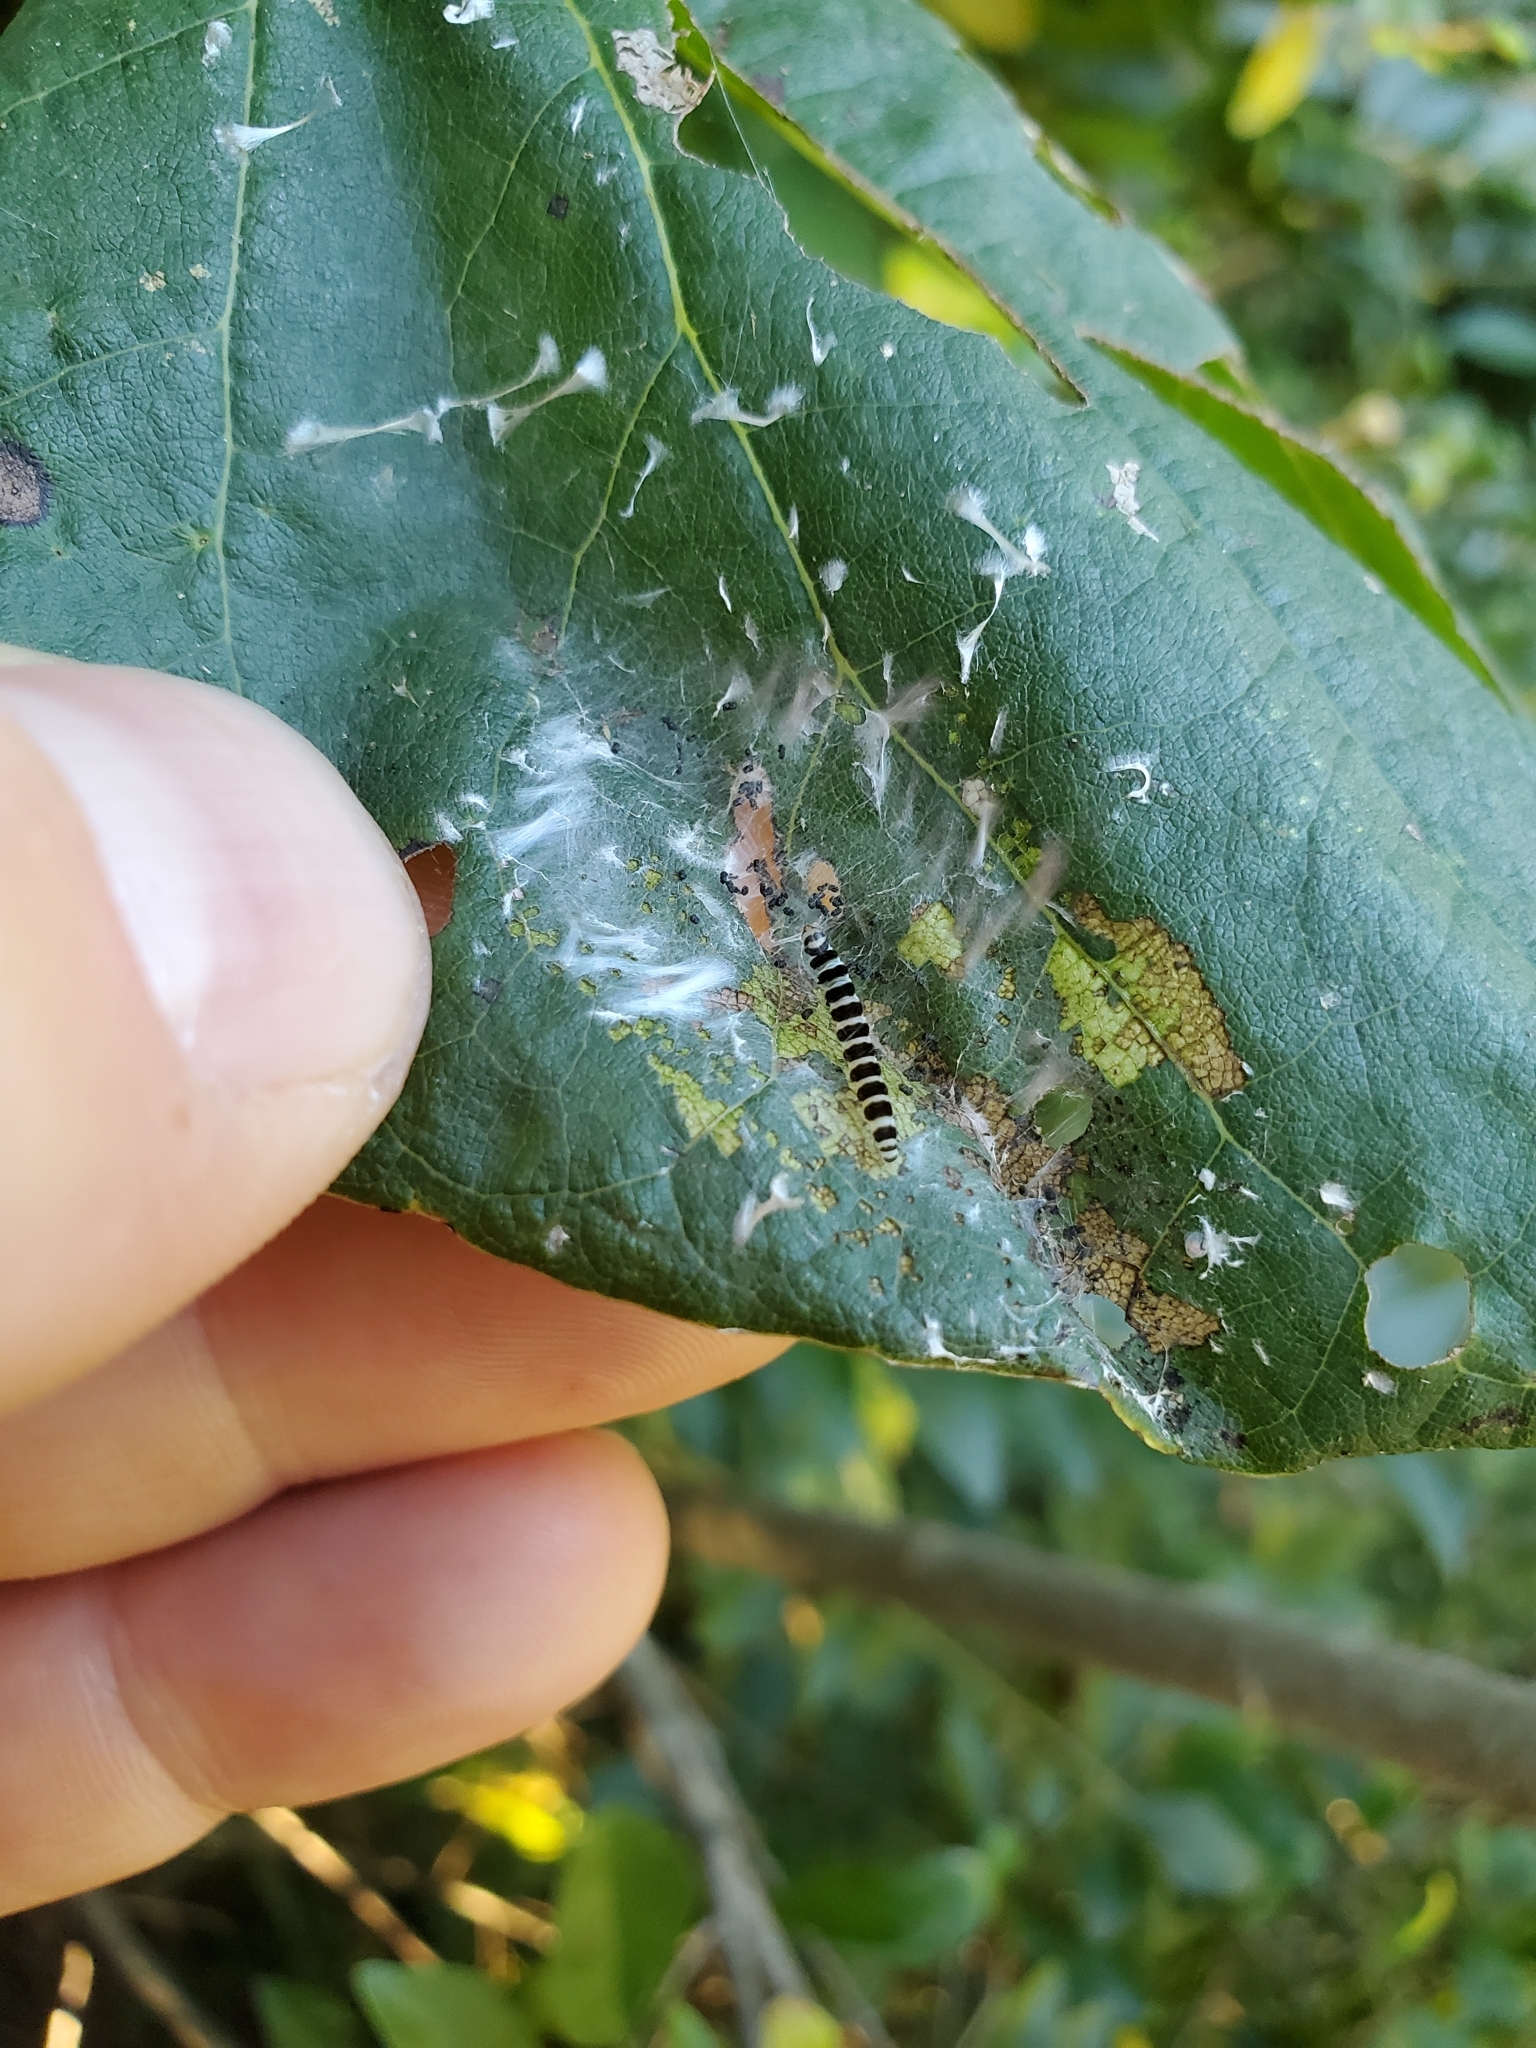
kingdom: Animalia
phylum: Arthropoda
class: Insecta
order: Lepidoptera
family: Gelechiidae
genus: Fascista
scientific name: Fascista cercerisella
